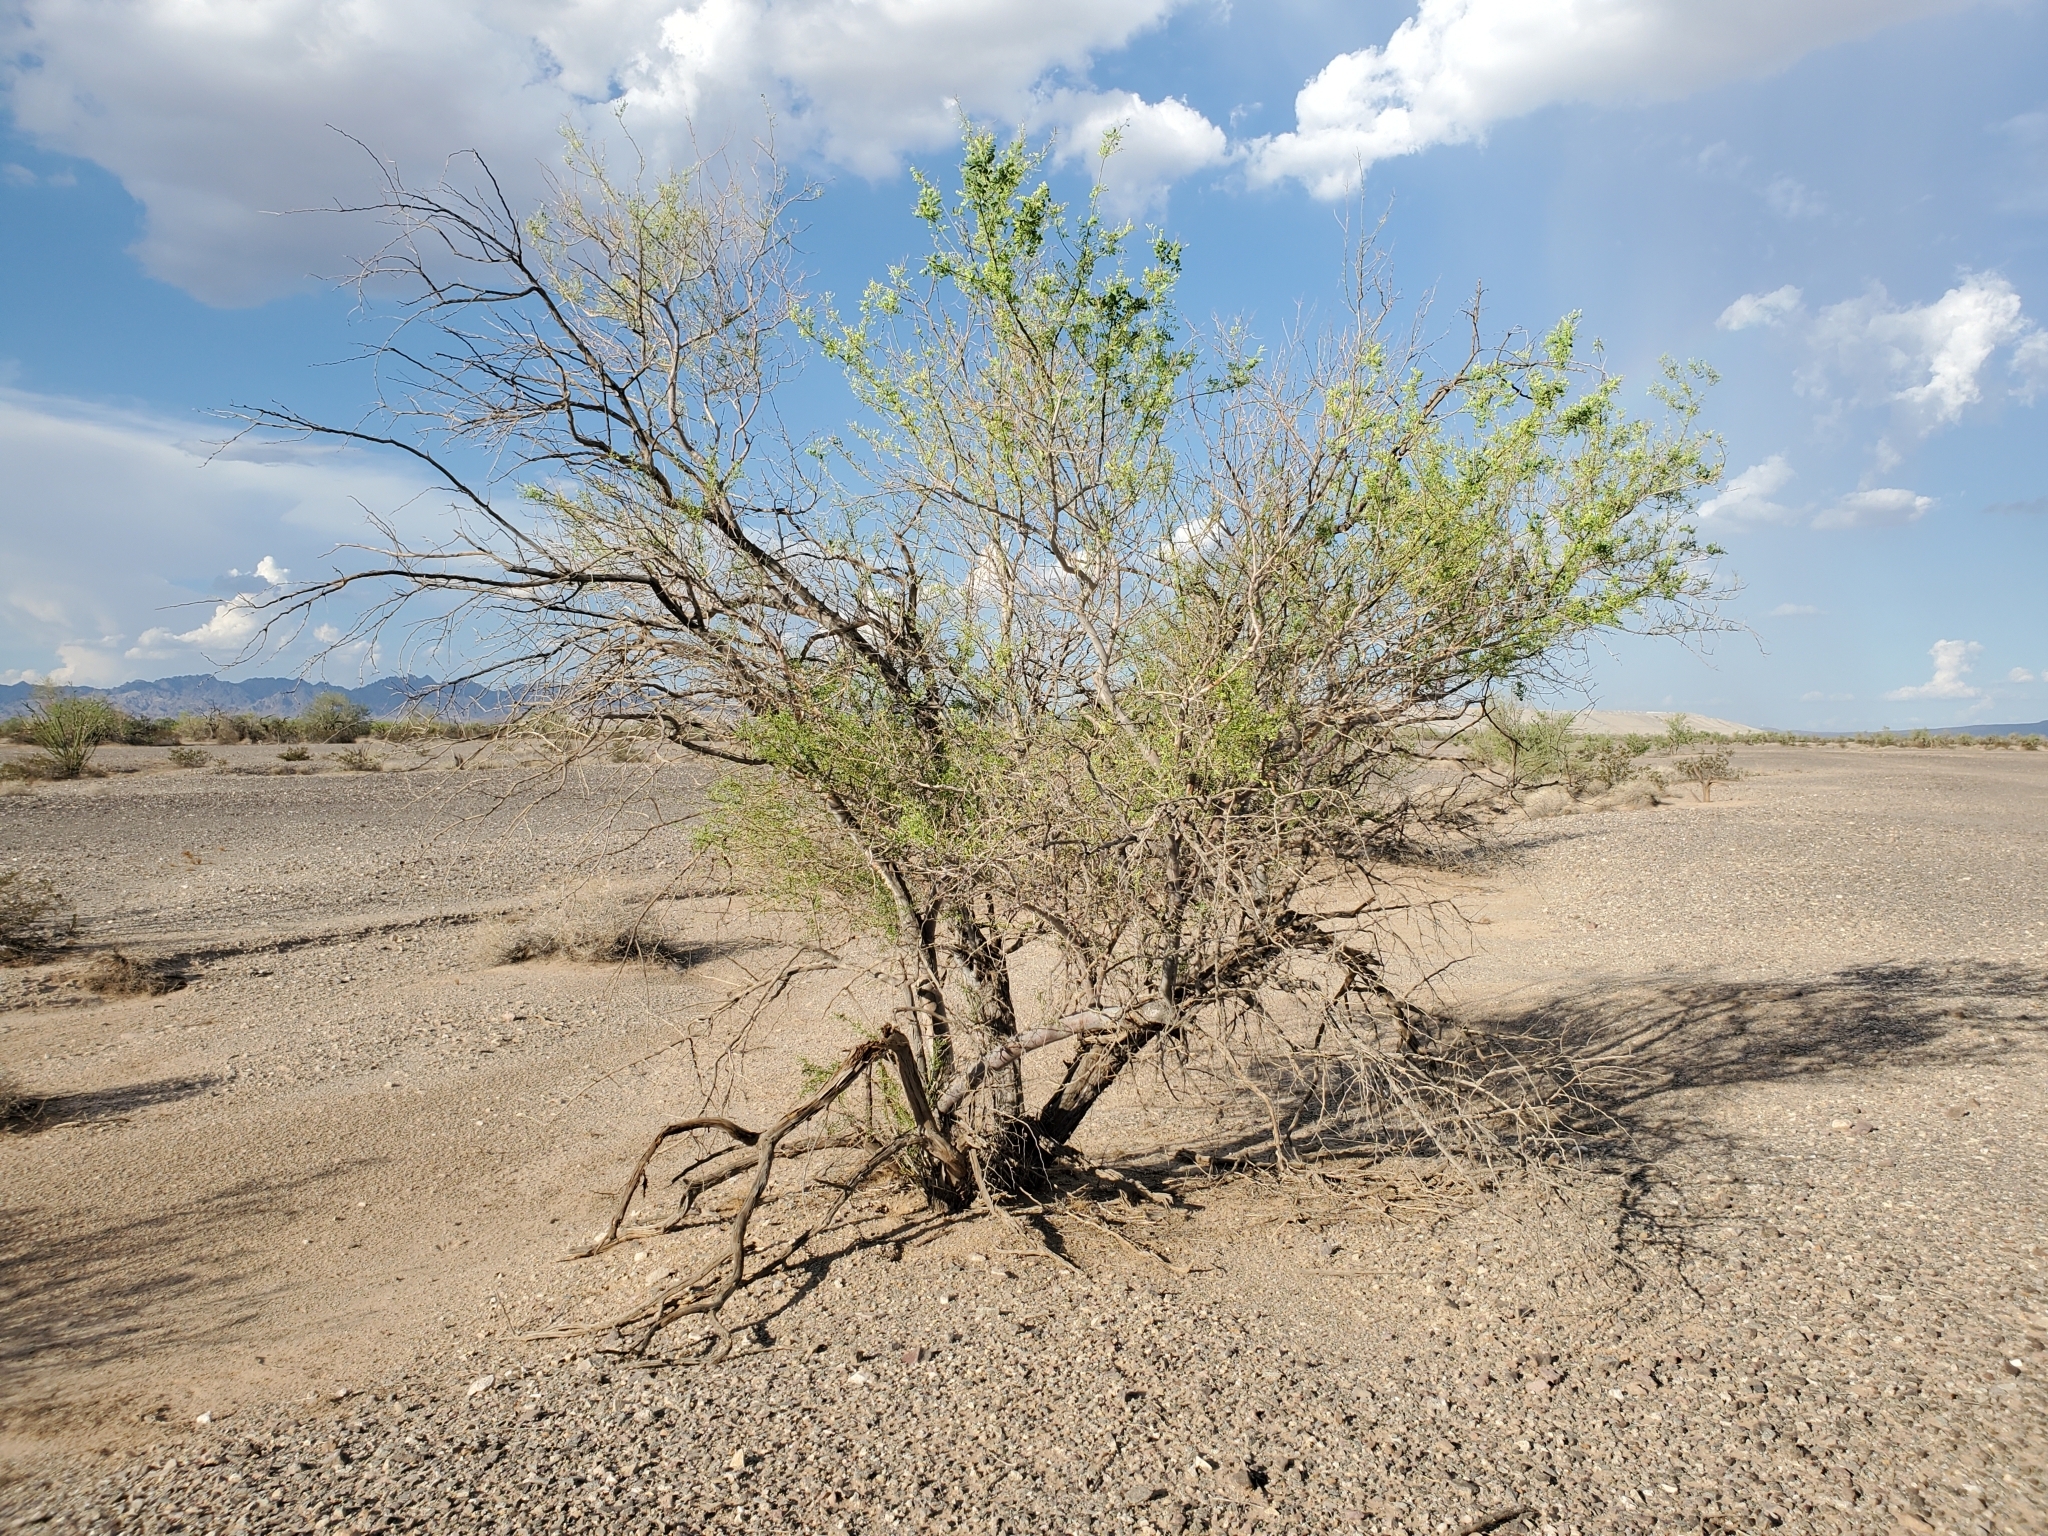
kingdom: Plantae
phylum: Tracheophyta
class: Magnoliopsida
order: Fabales
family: Fabaceae
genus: Olneya
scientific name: Olneya tesota
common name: Desert ironwood
